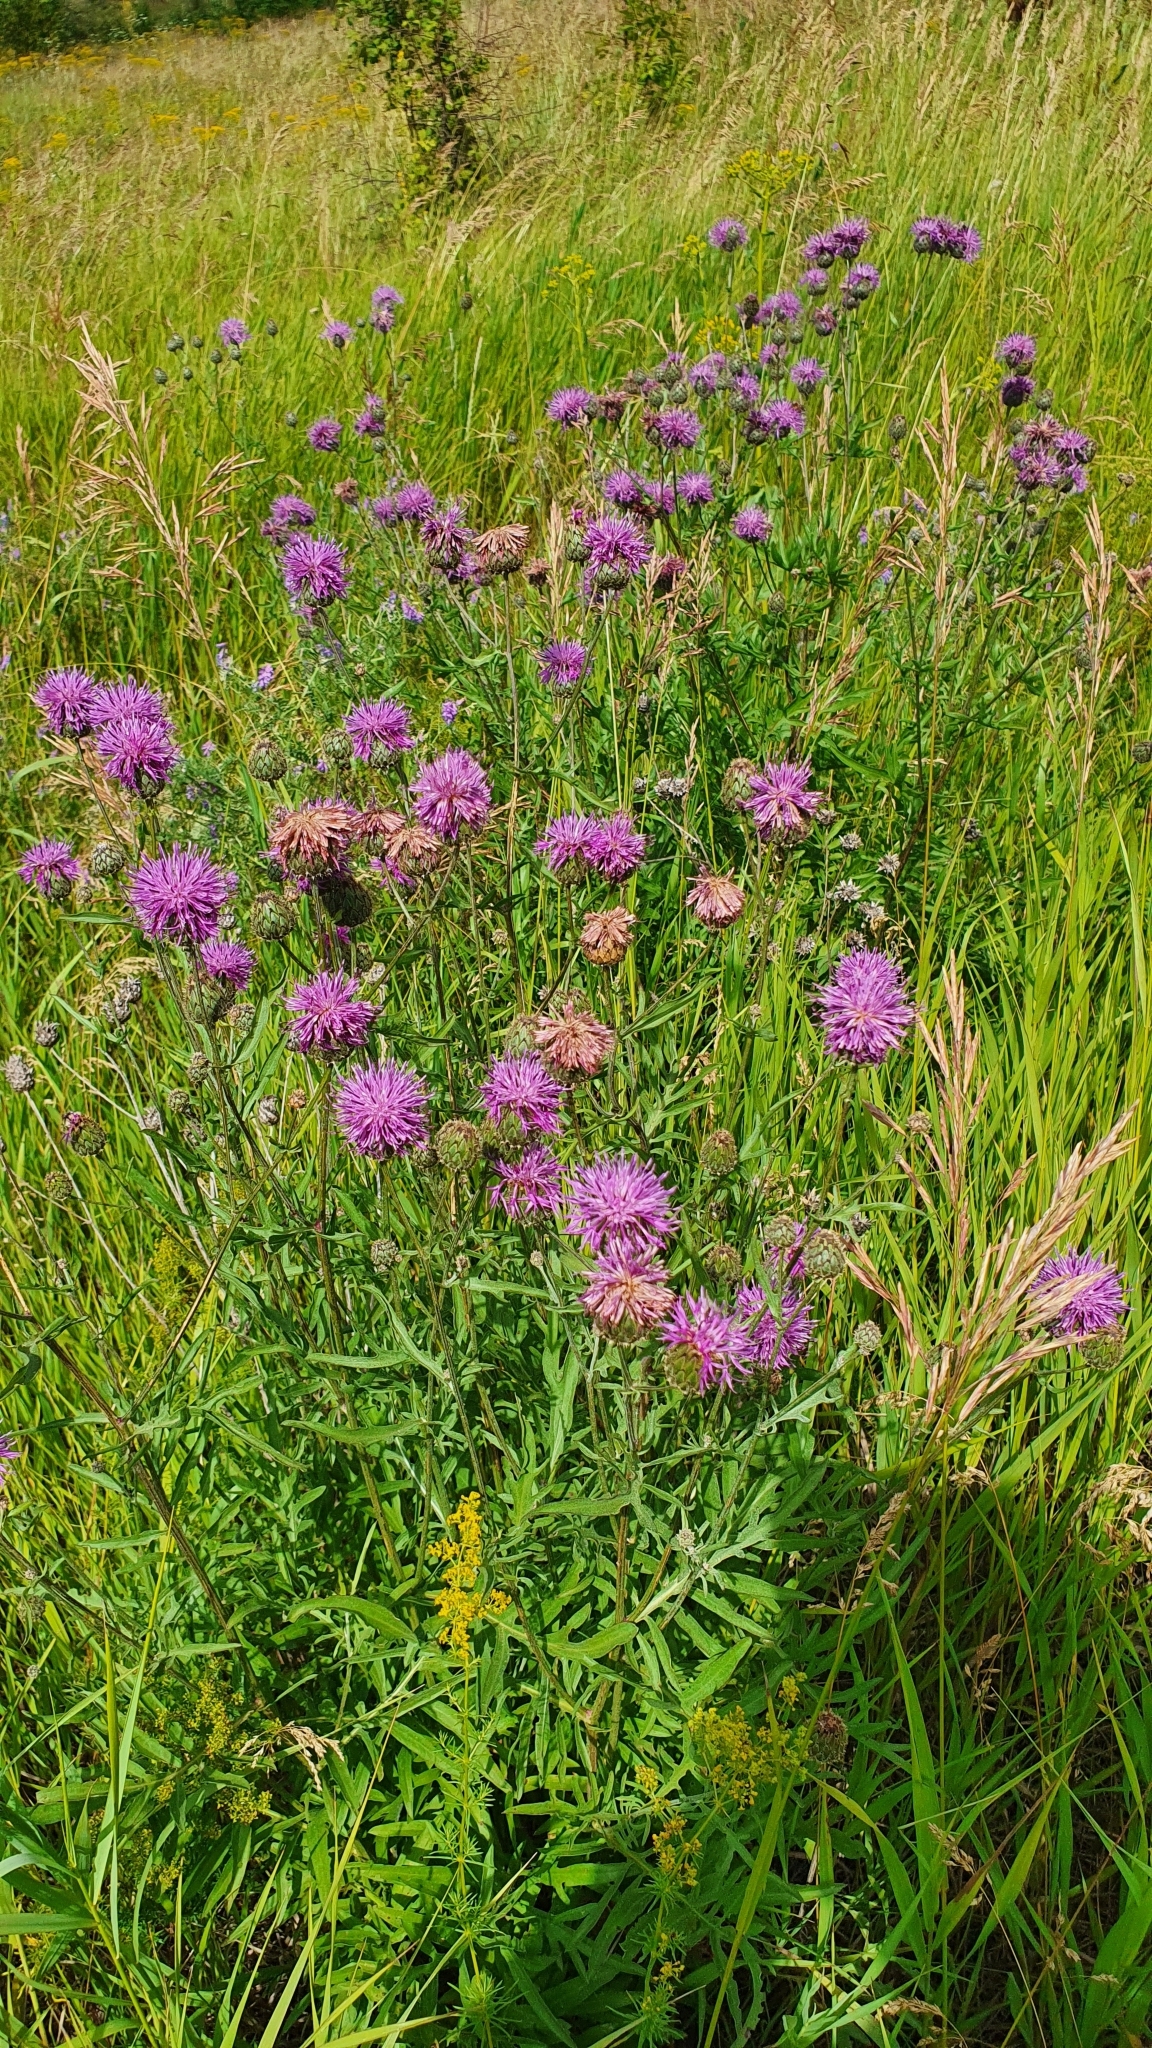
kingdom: Plantae
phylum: Tracheophyta
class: Magnoliopsida
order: Asterales
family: Asteraceae
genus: Centaurea
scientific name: Centaurea scabiosa
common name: Greater knapweed
